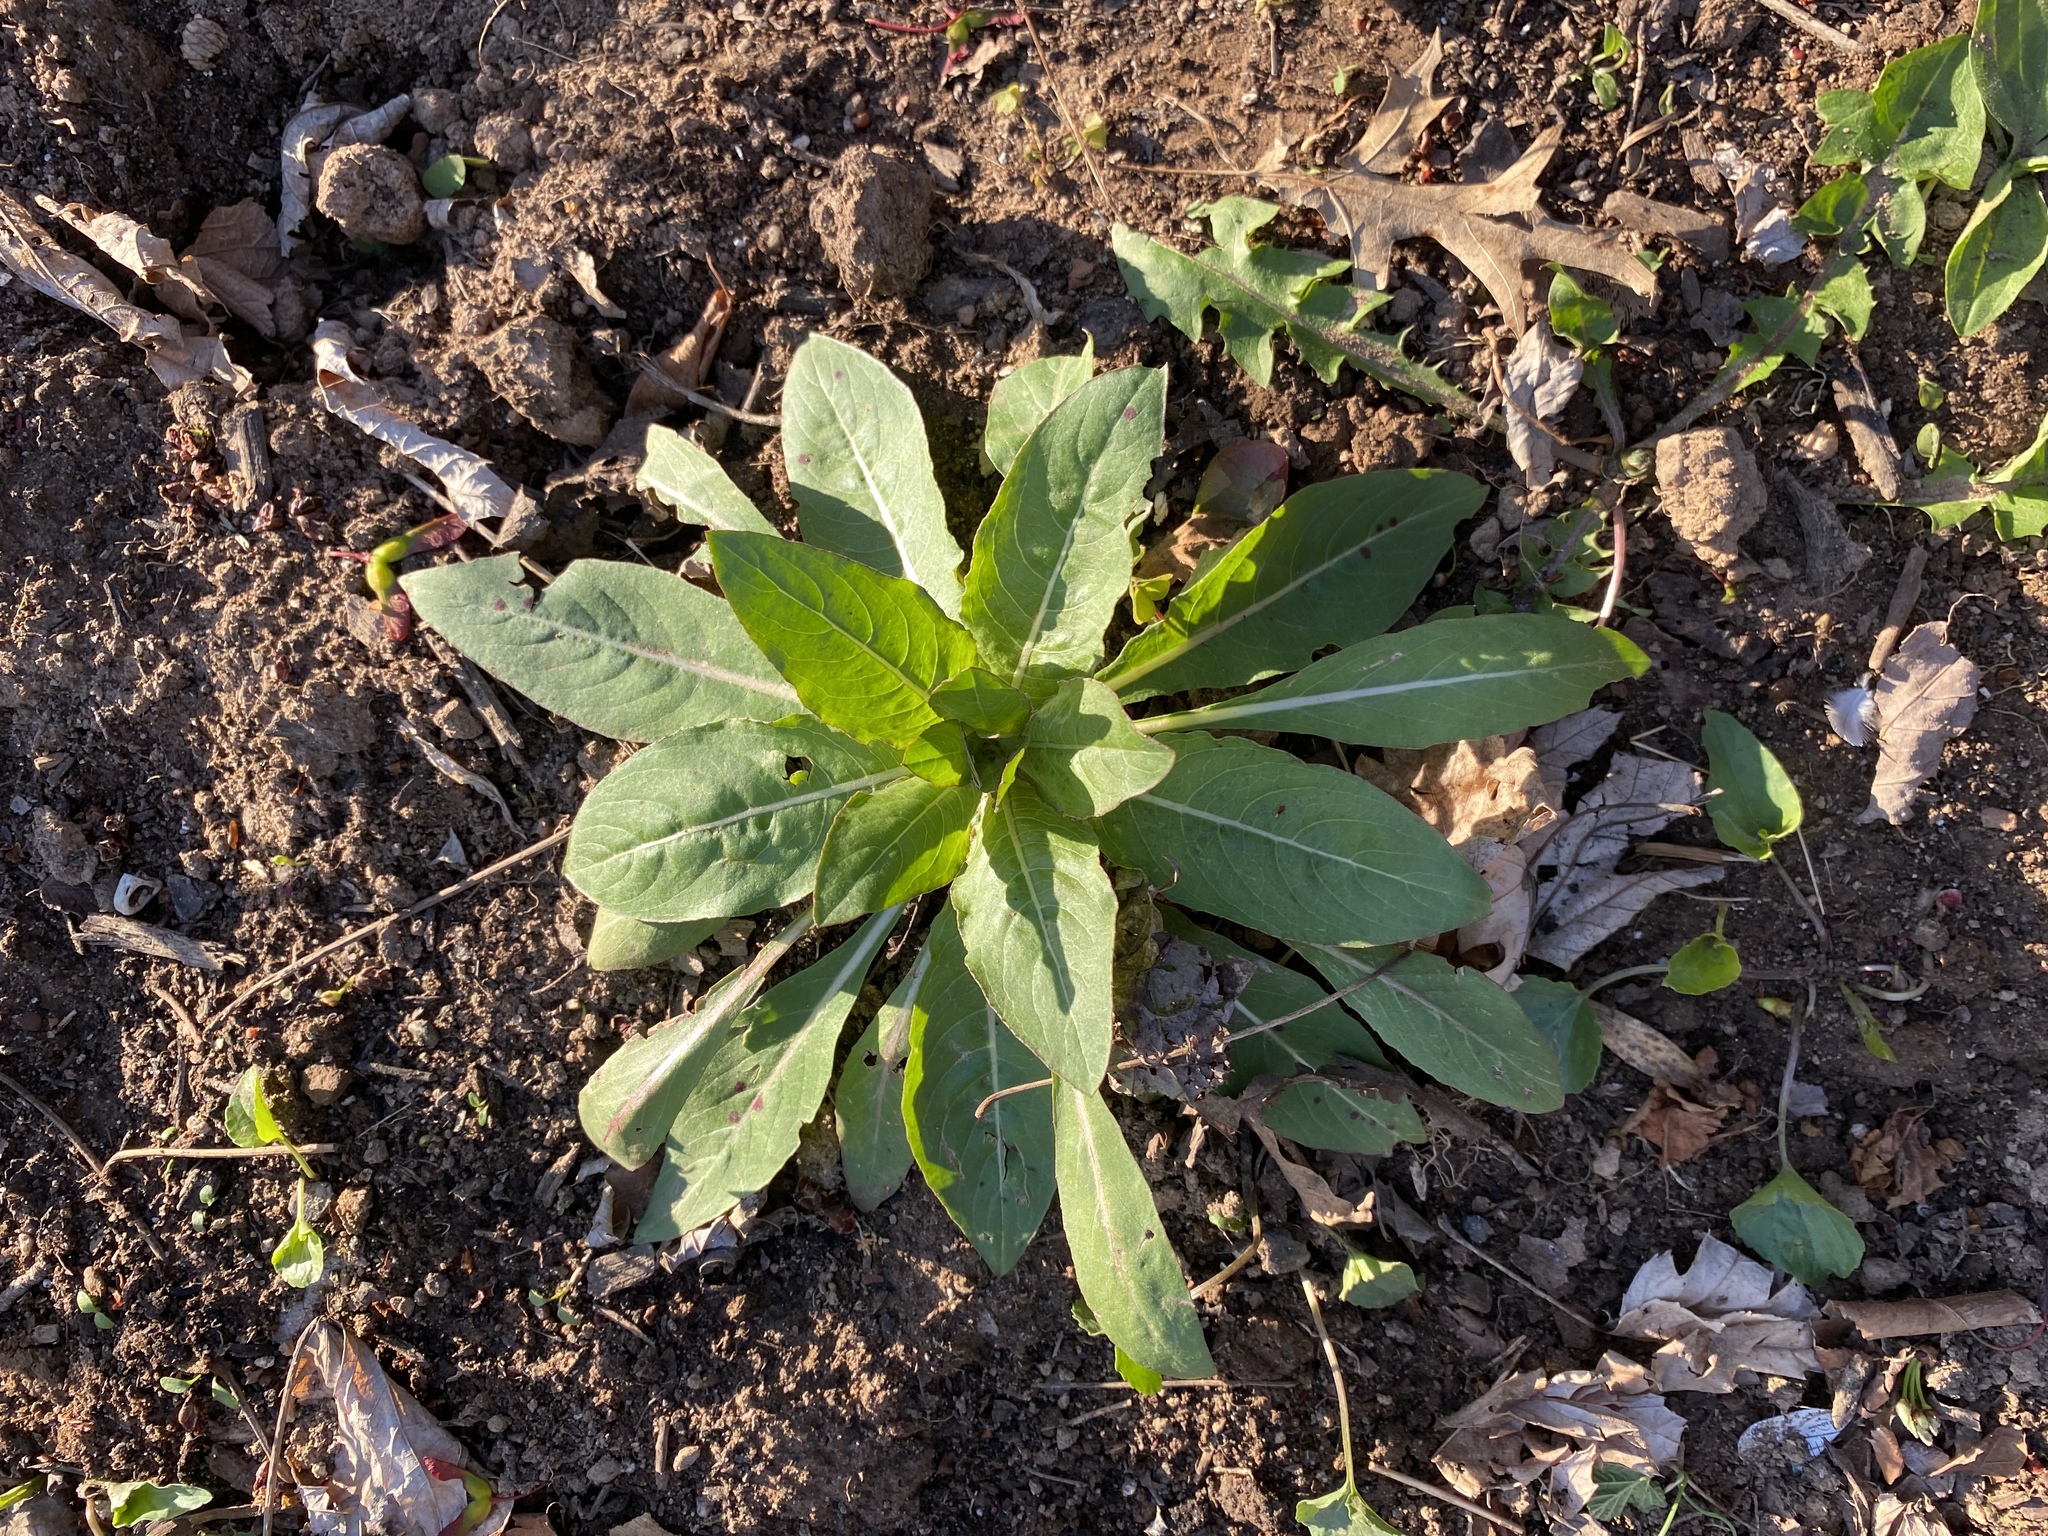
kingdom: Plantae
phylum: Tracheophyta
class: Magnoliopsida
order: Myrtales
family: Onagraceae
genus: Oenothera
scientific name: Oenothera biennis
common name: Common evening-primrose
